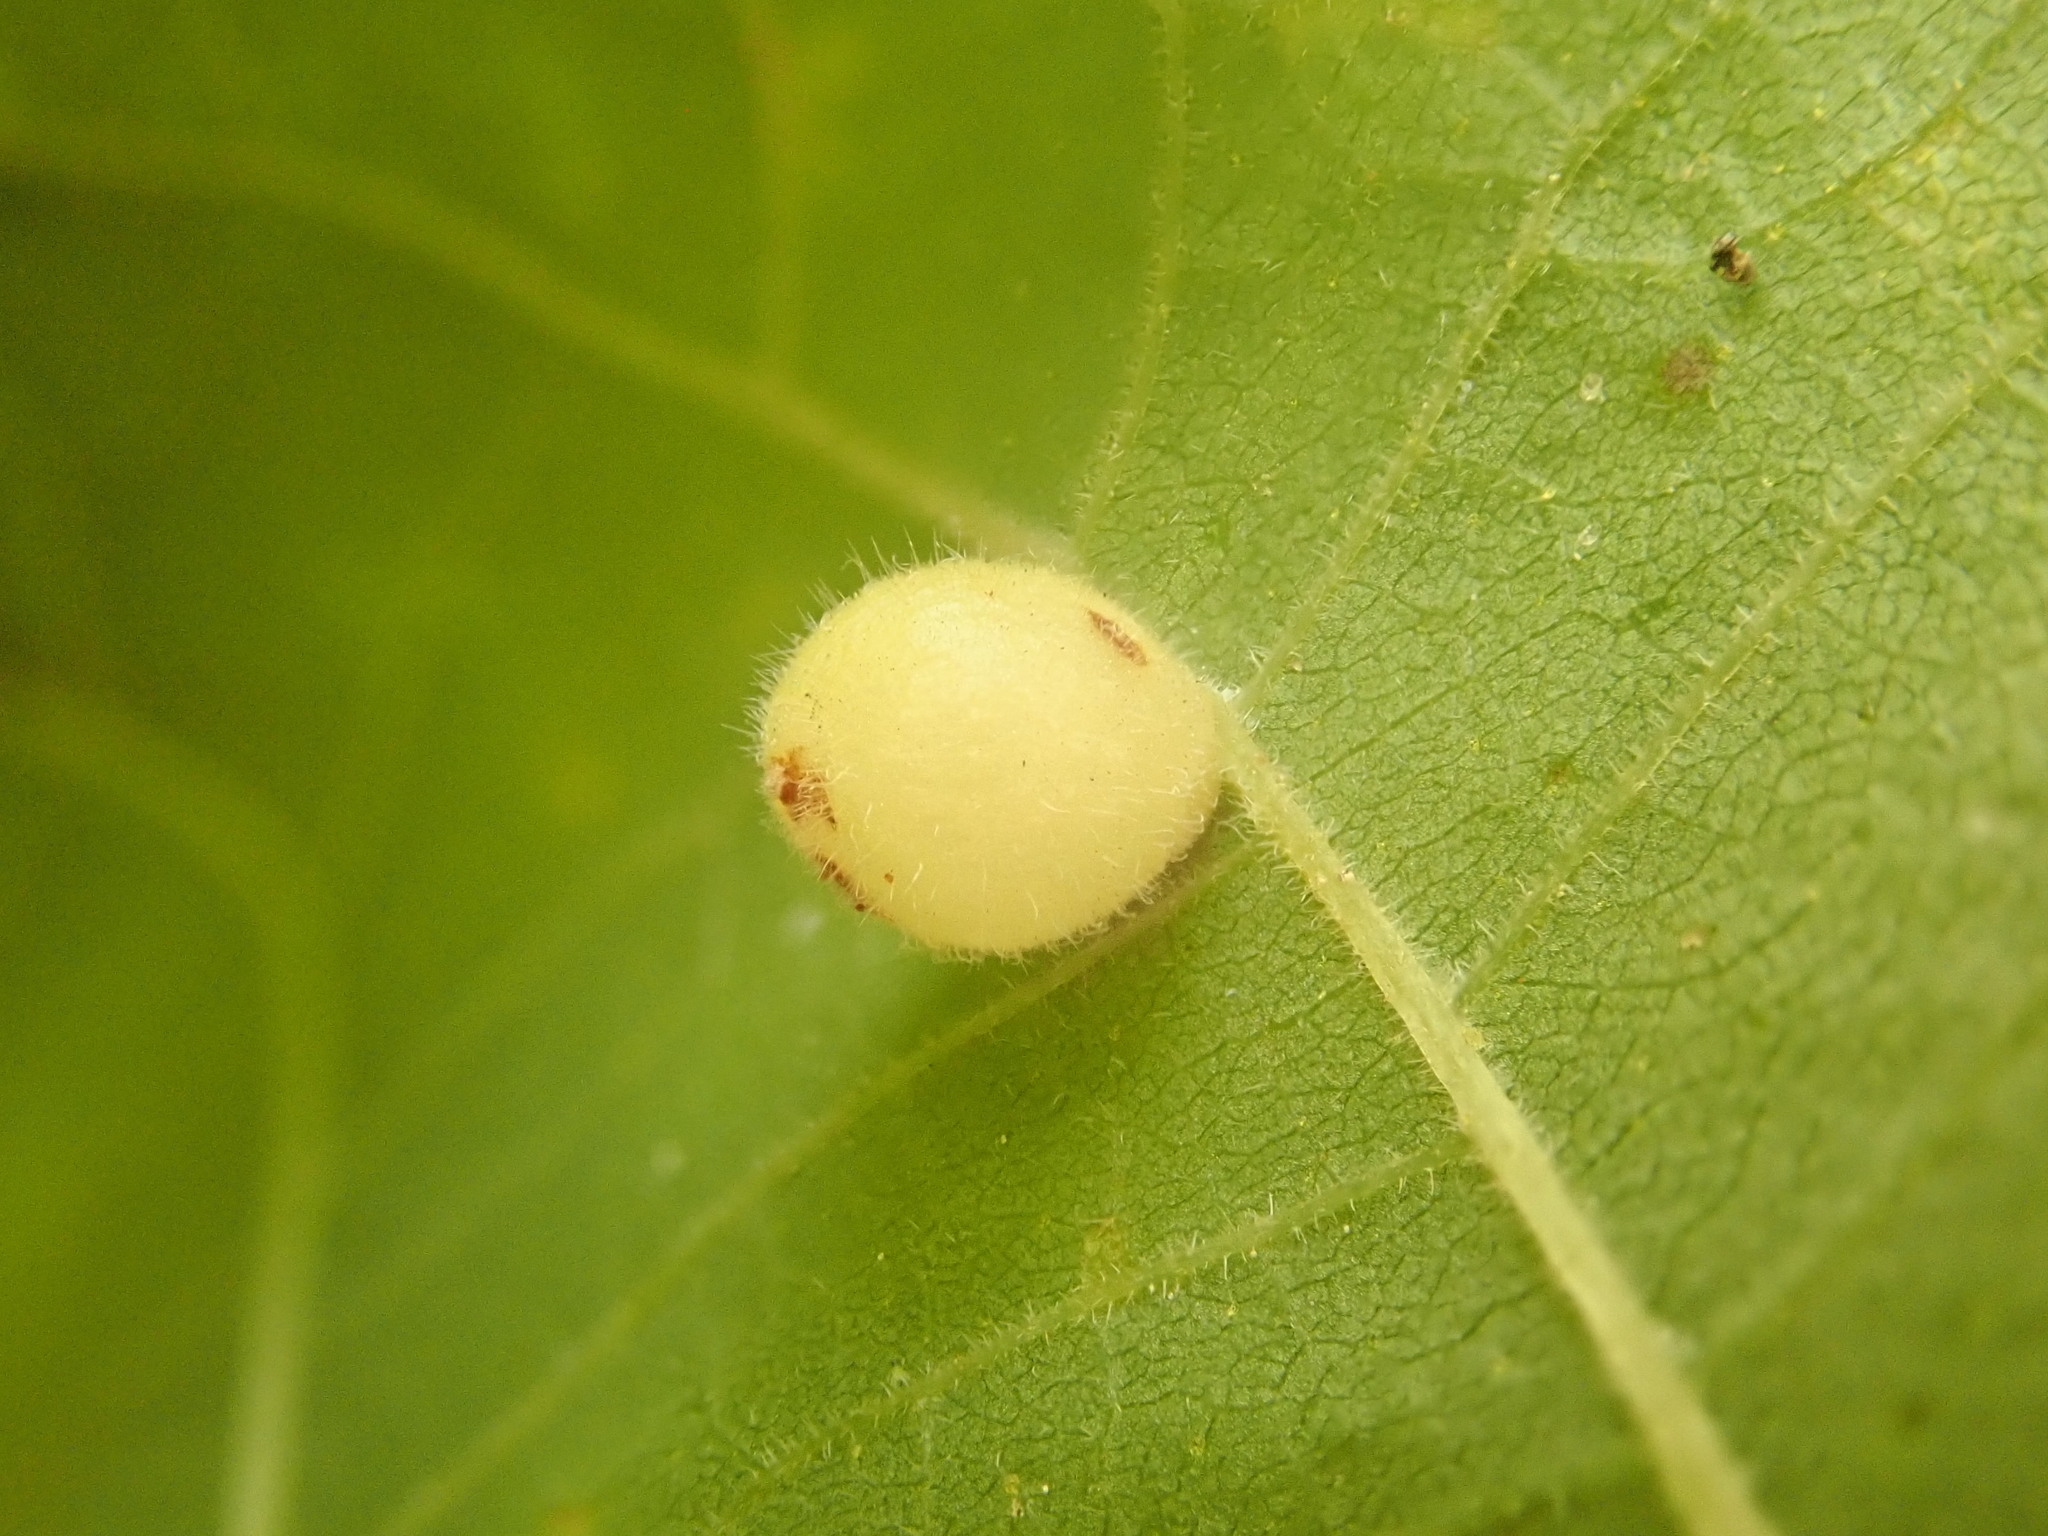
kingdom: Animalia
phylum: Arthropoda
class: Insecta
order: Diptera
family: Cecidomyiidae
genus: Caryomyia
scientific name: Caryomyia cilidolium
